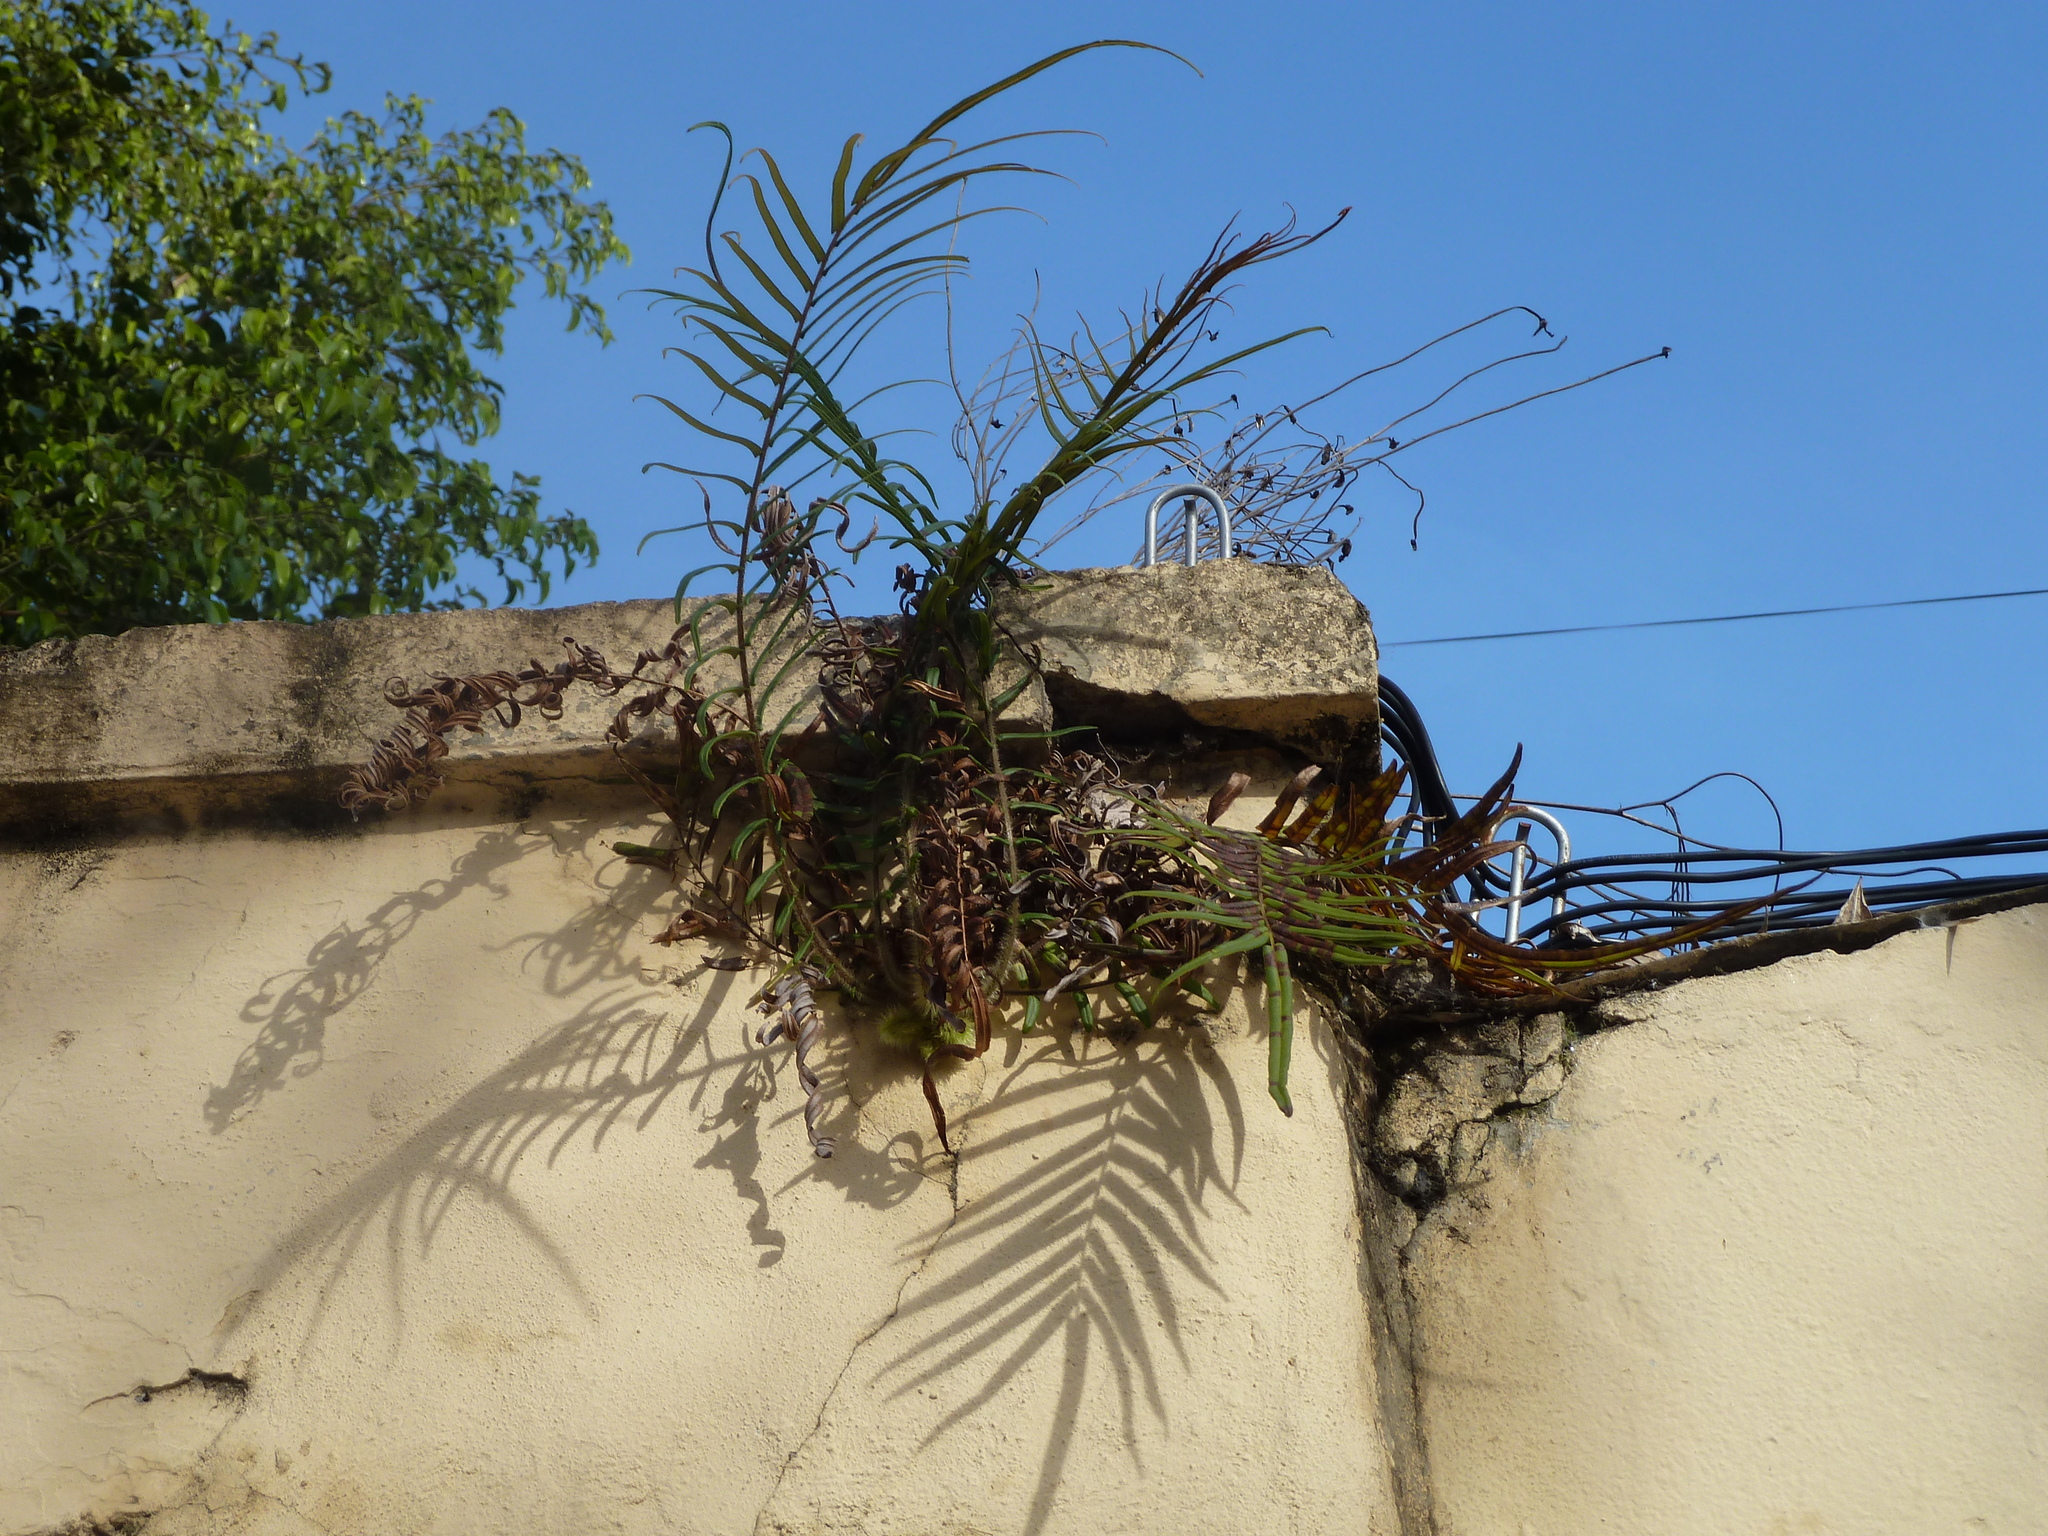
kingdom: Plantae
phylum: Tracheophyta
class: Polypodiopsida
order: Polypodiales
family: Pteridaceae
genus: Pteris
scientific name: Pteris vittata
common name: Ladder brake
